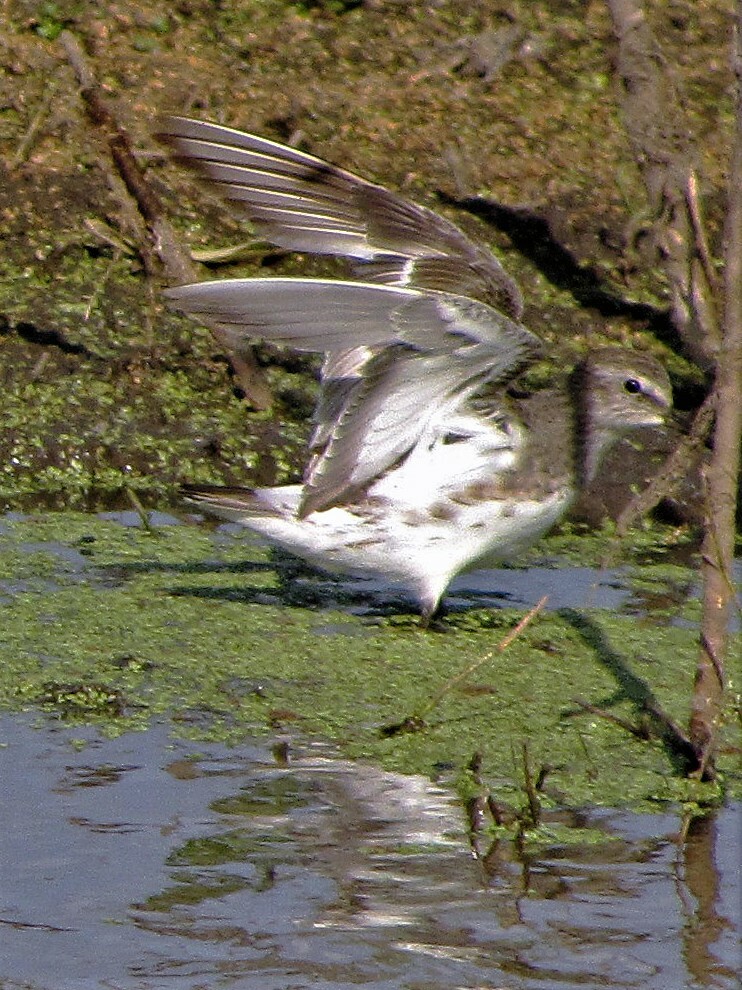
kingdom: Animalia
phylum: Chordata
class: Aves
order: Charadriiformes
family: Scolopacidae
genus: Calidris
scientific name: Calidris fuscicollis
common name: White-rumped sandpiper
